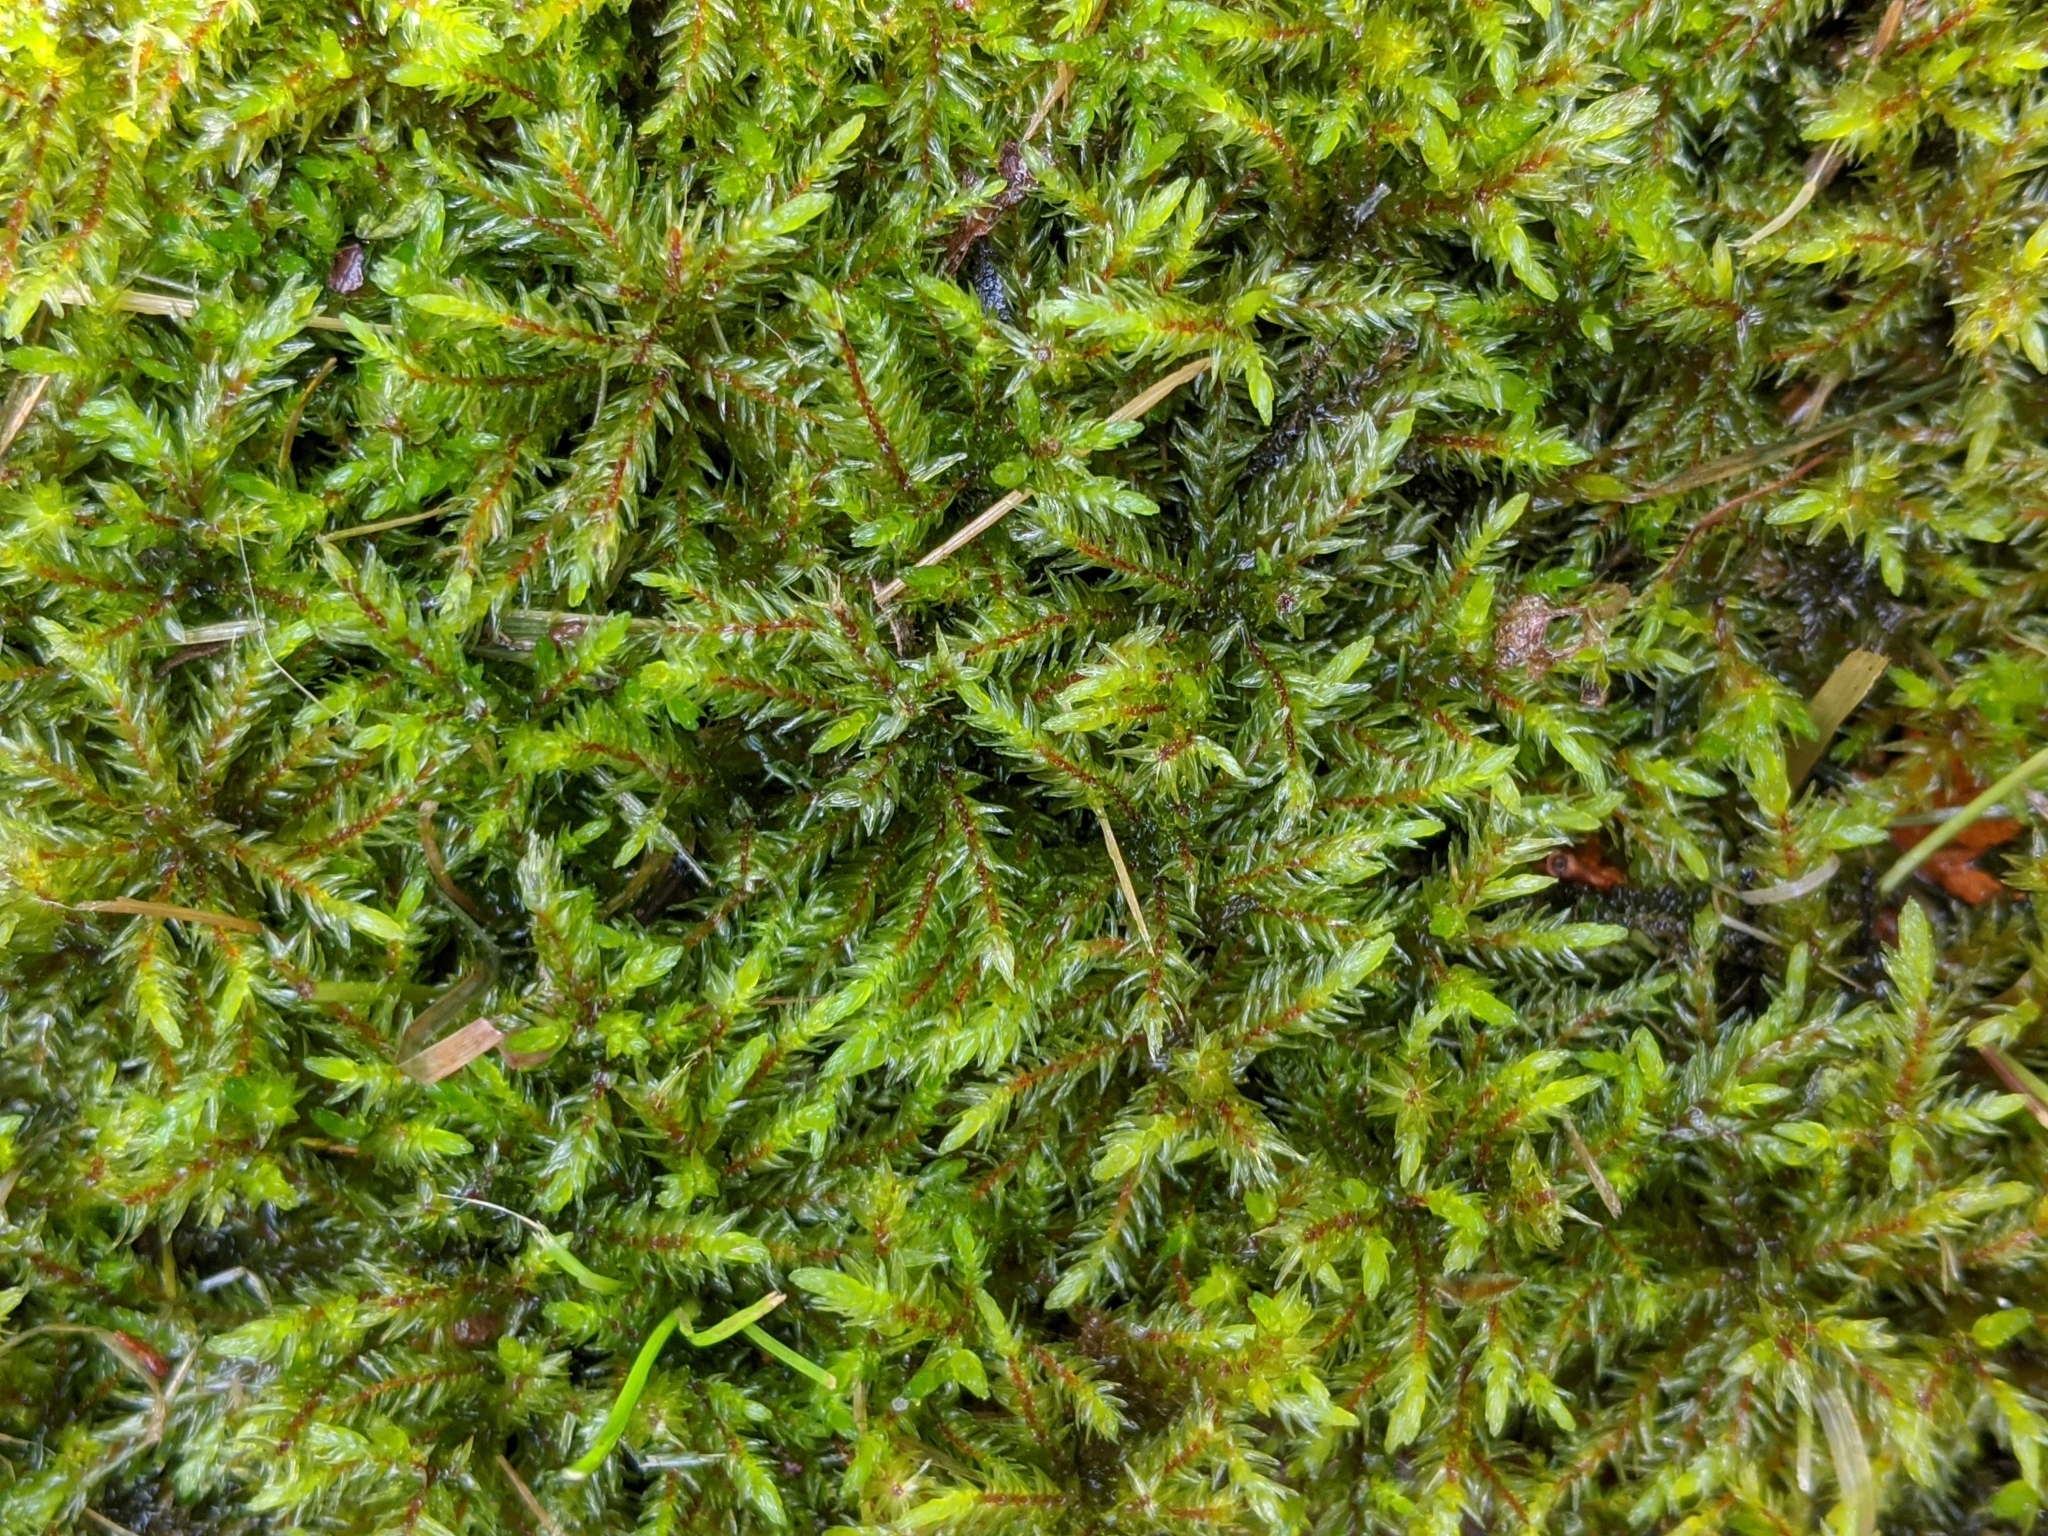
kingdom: Plantae
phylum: Bryophyta
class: Bryopsida
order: Hypnales
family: Climaciaceae
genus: Climacium
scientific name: Climacium dendroides
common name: Northern tree moss
